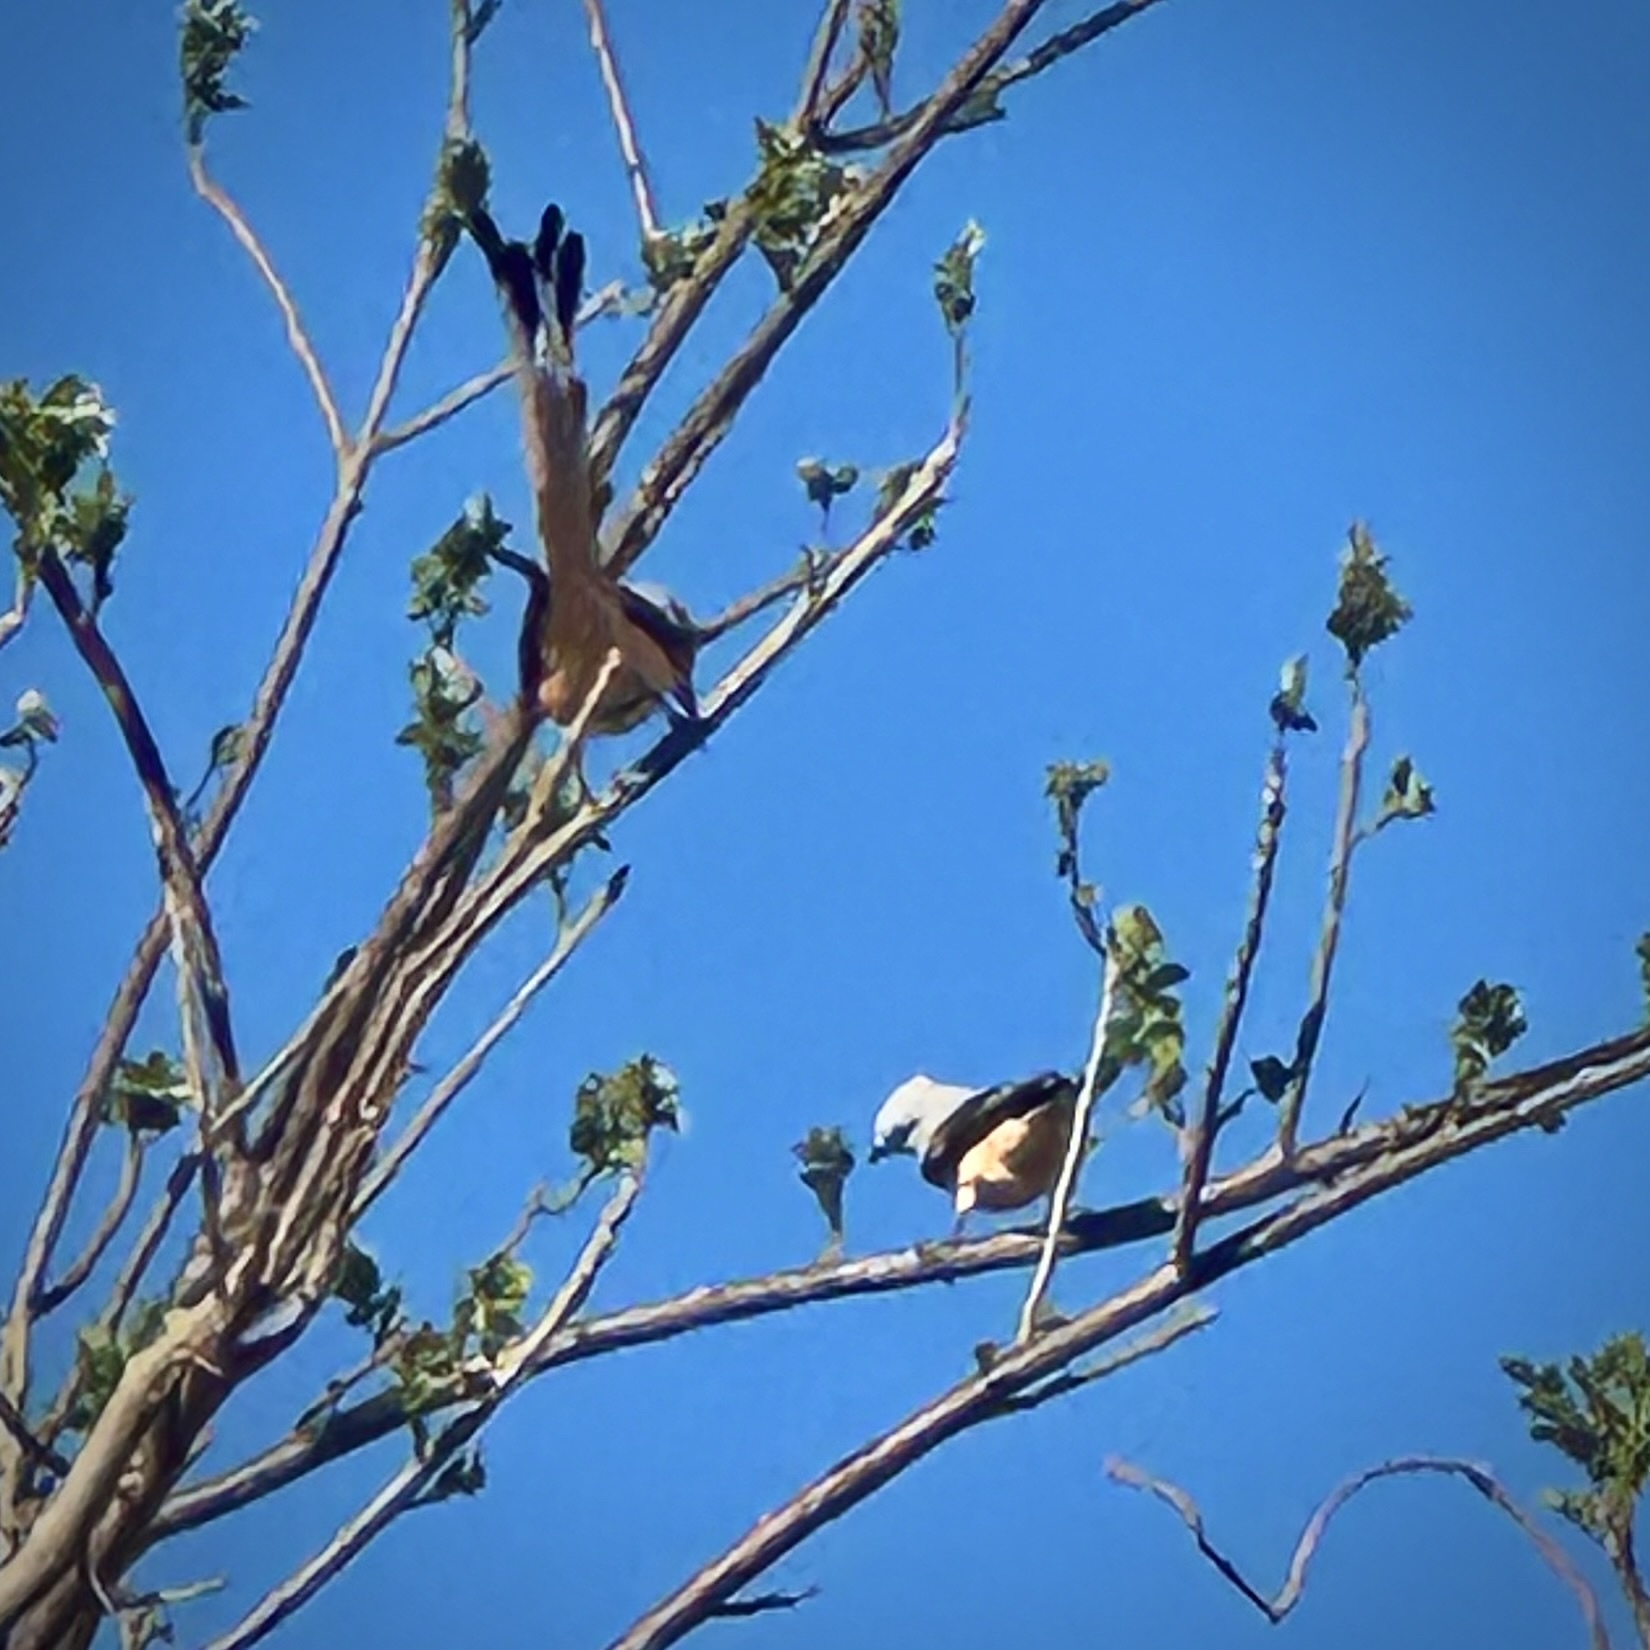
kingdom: Animalia
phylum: Chordata
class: Aves
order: Passeriformes
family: Tyrannidae
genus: Tyrannus
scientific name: Tyrannus forficatus
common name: Scissor-tailed flycatcher
